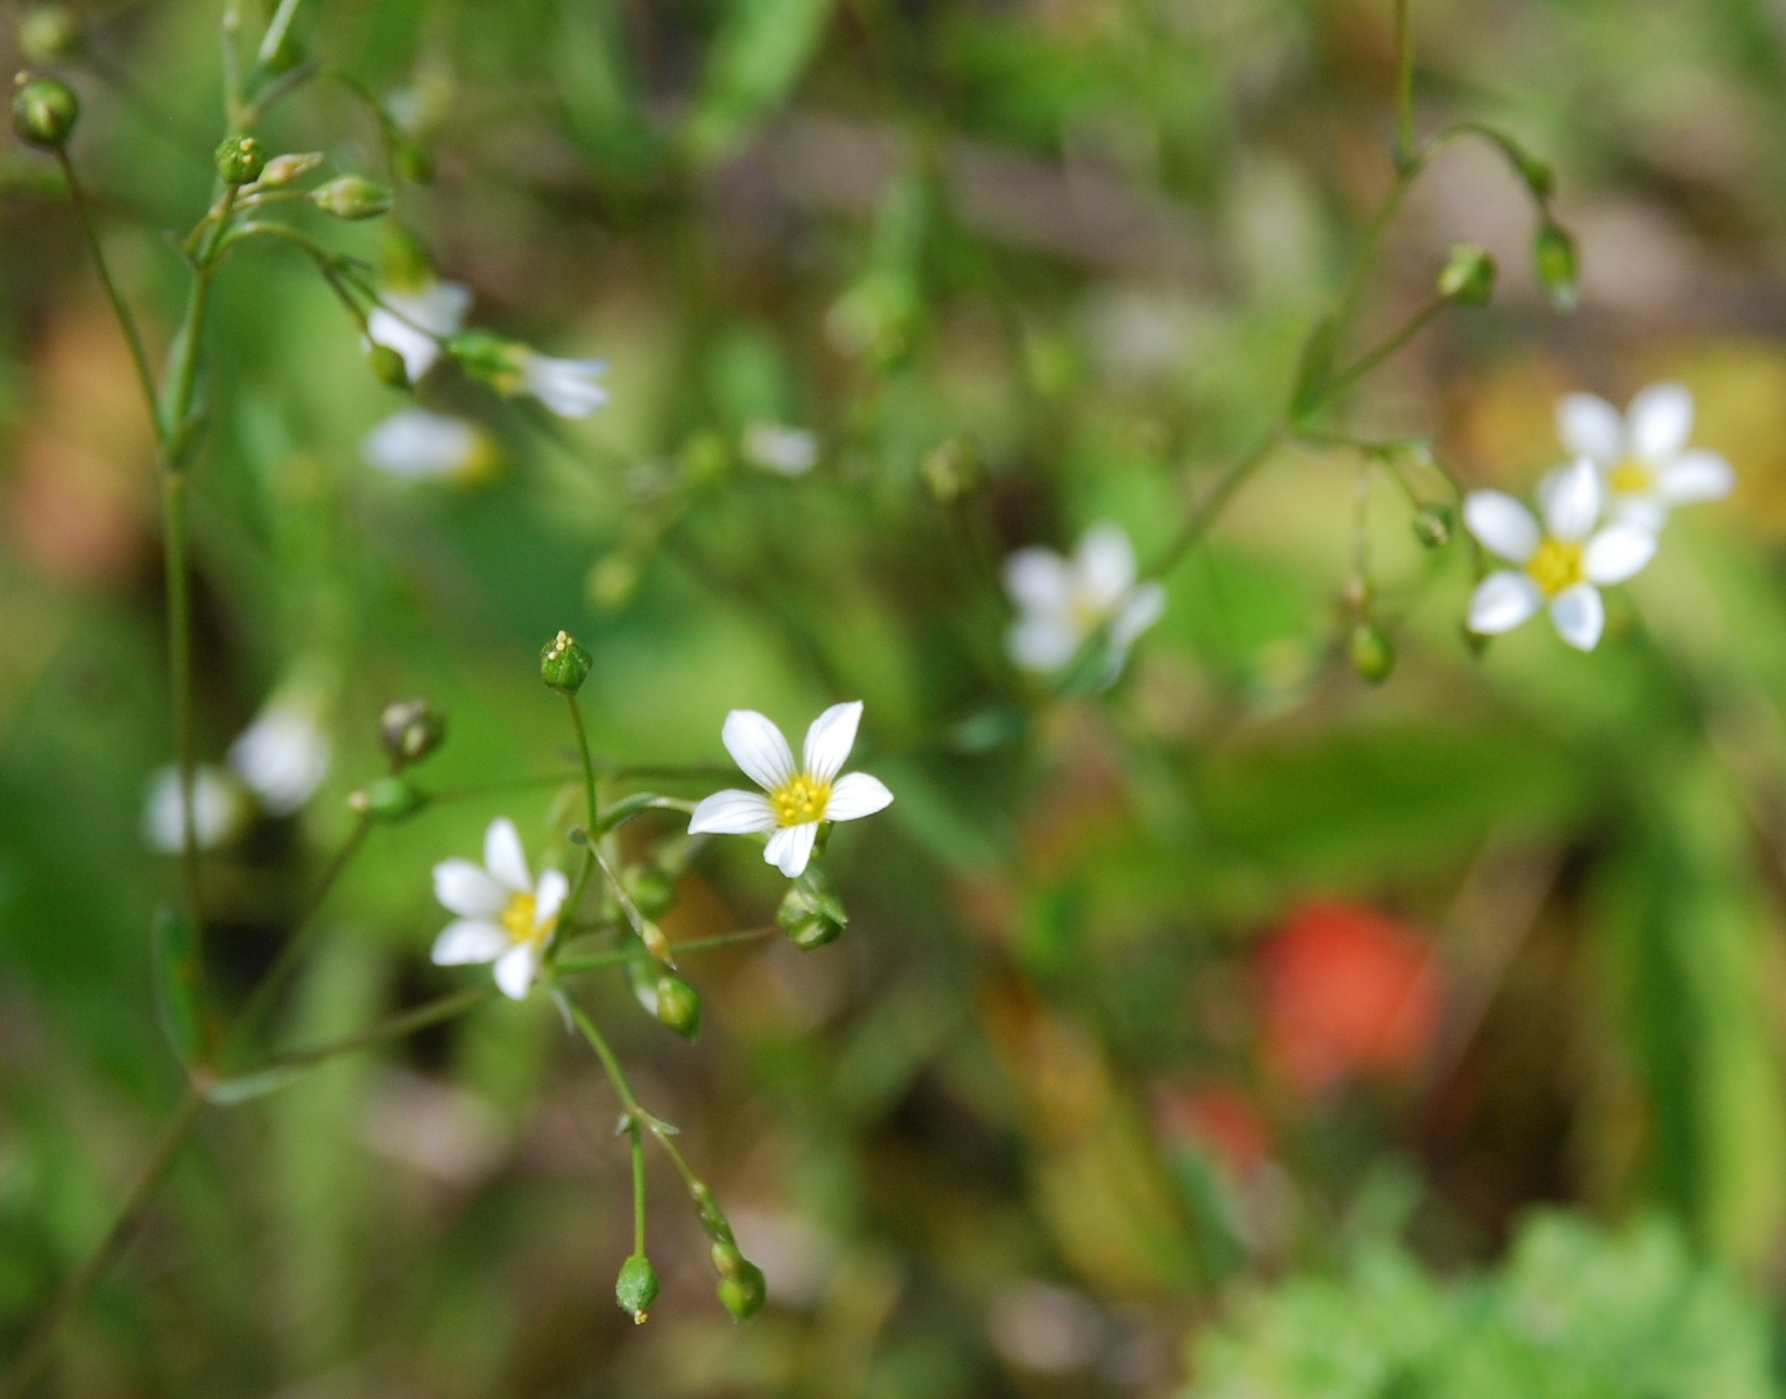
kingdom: Plantae
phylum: Tracheophyta
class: Magnoliopsida
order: Malpighiales
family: Linaceae
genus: Linum
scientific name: Linum catharticum
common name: Fairy flax
